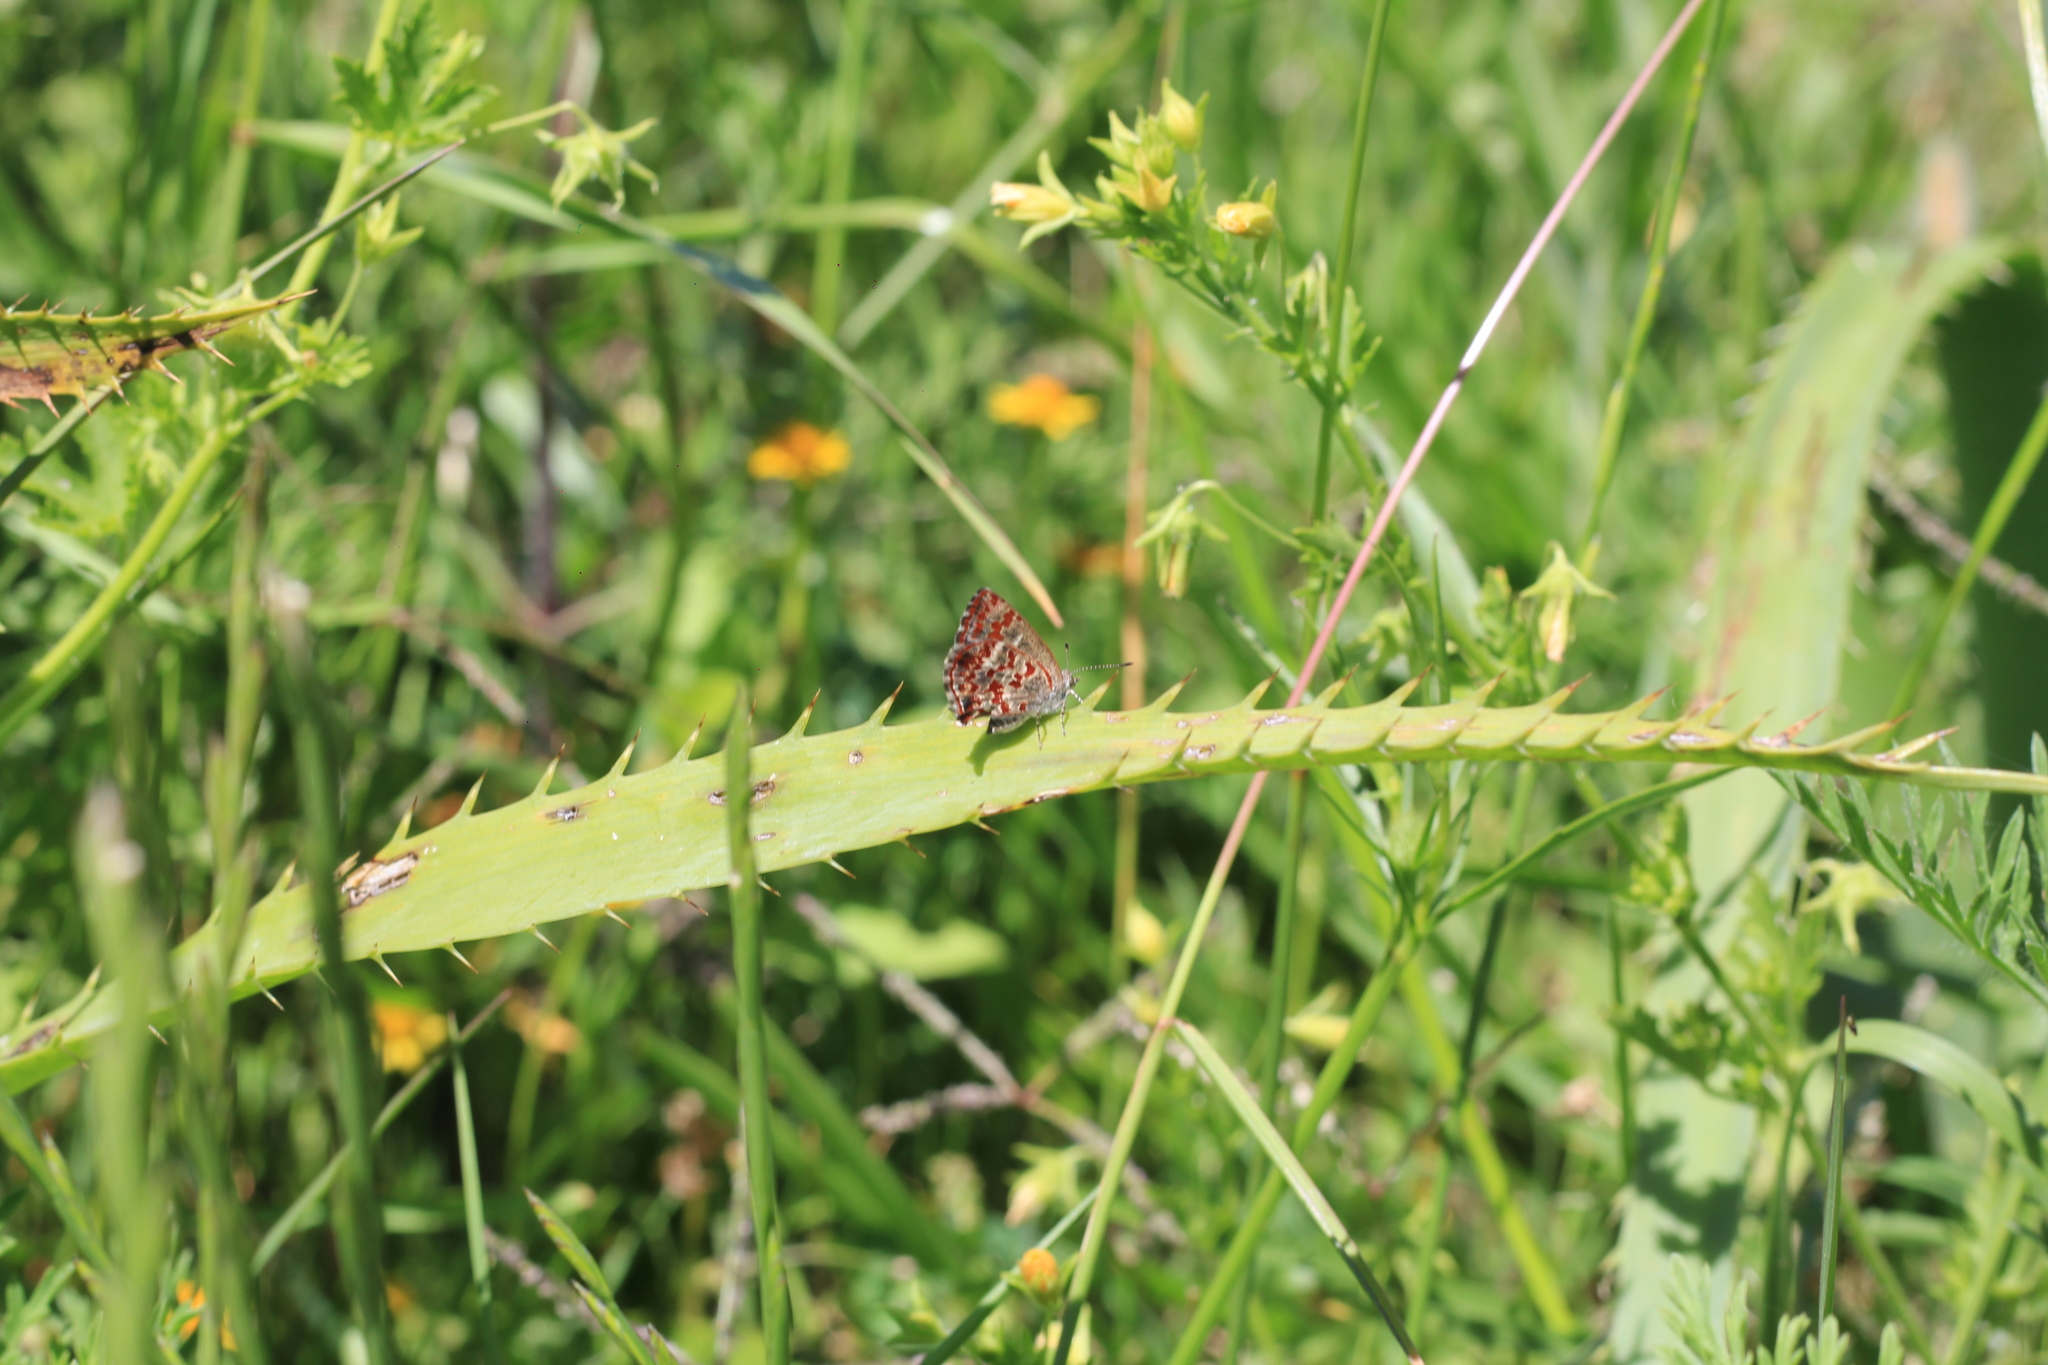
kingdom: Animalia
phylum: Arthropoda
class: Insecta
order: Lepidoptera
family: Lycaenidae
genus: Ministrymon
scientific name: Ministrymon
